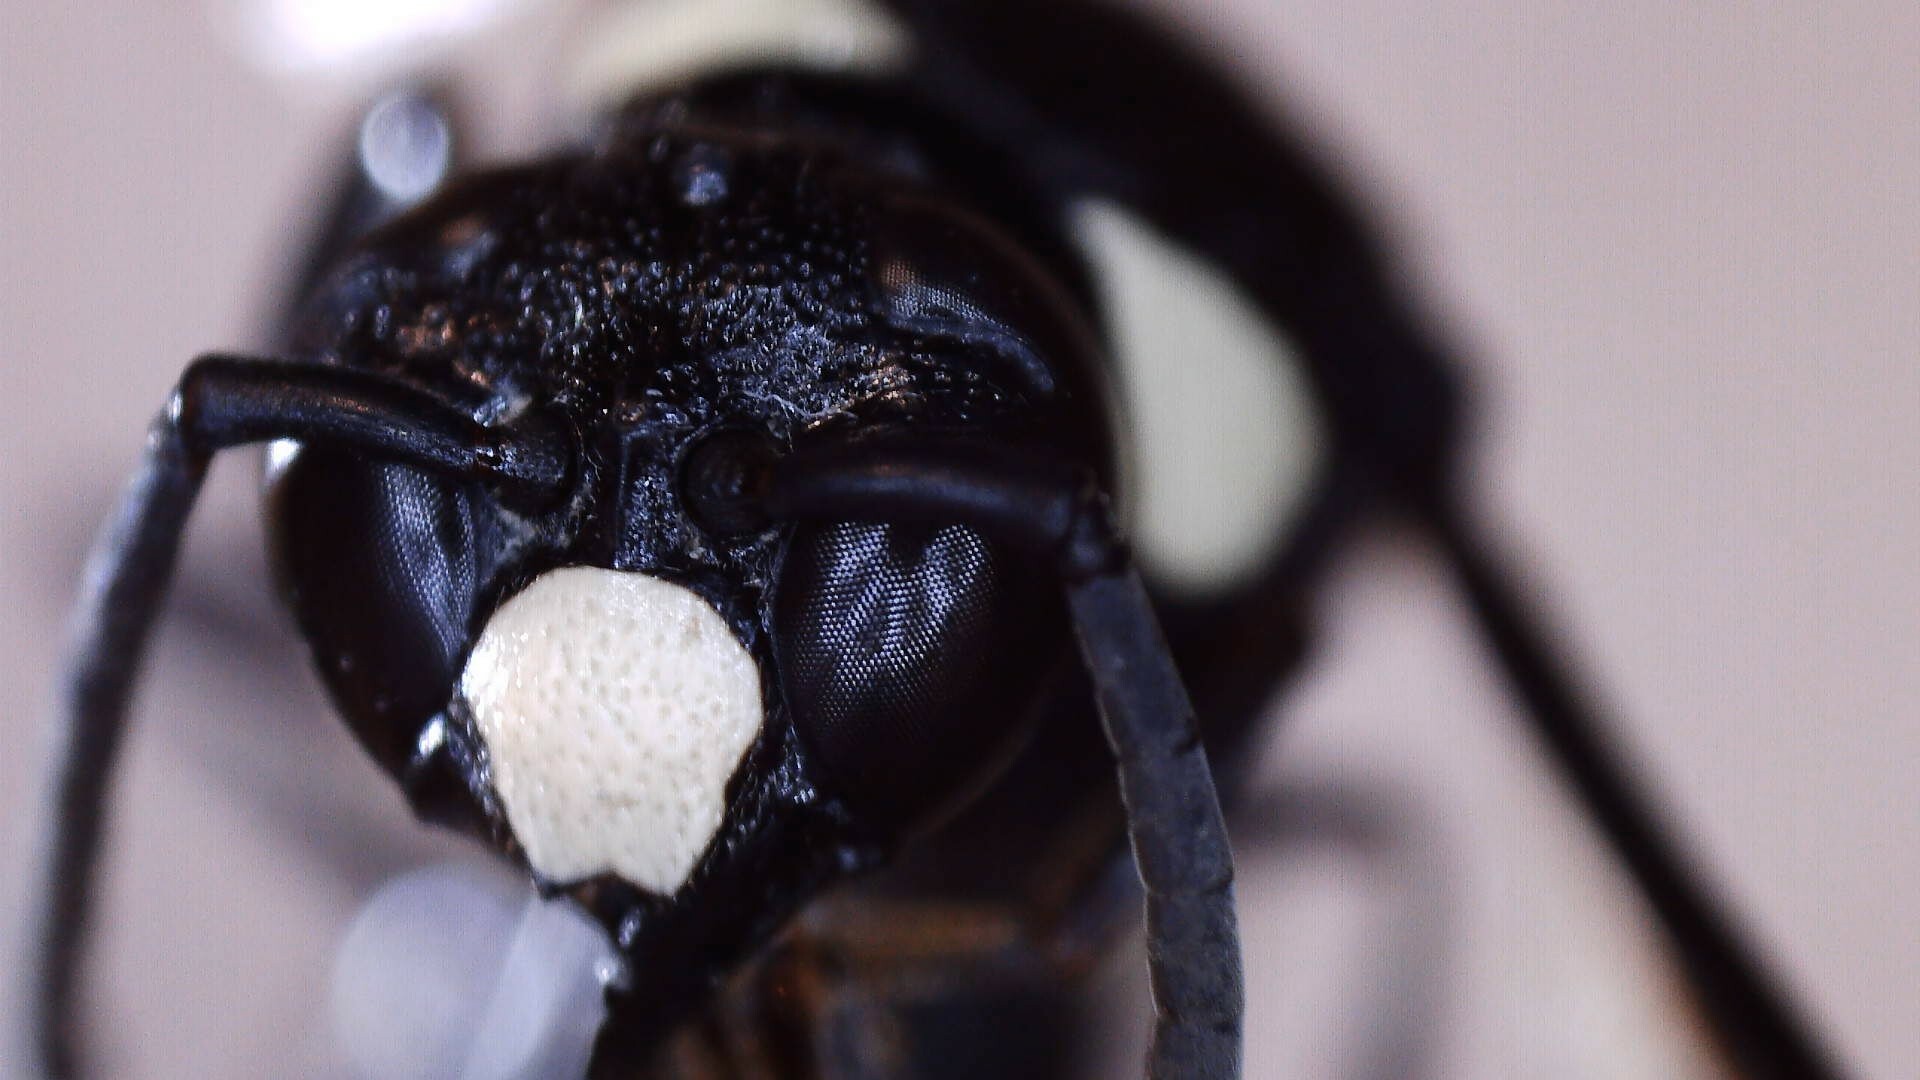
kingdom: Animalia
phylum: Arthropoda
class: Insecta
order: Hymenoptera
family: Eumenidae
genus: Monobia
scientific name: Monobia quadridens
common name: Four-toothed mason wasp
